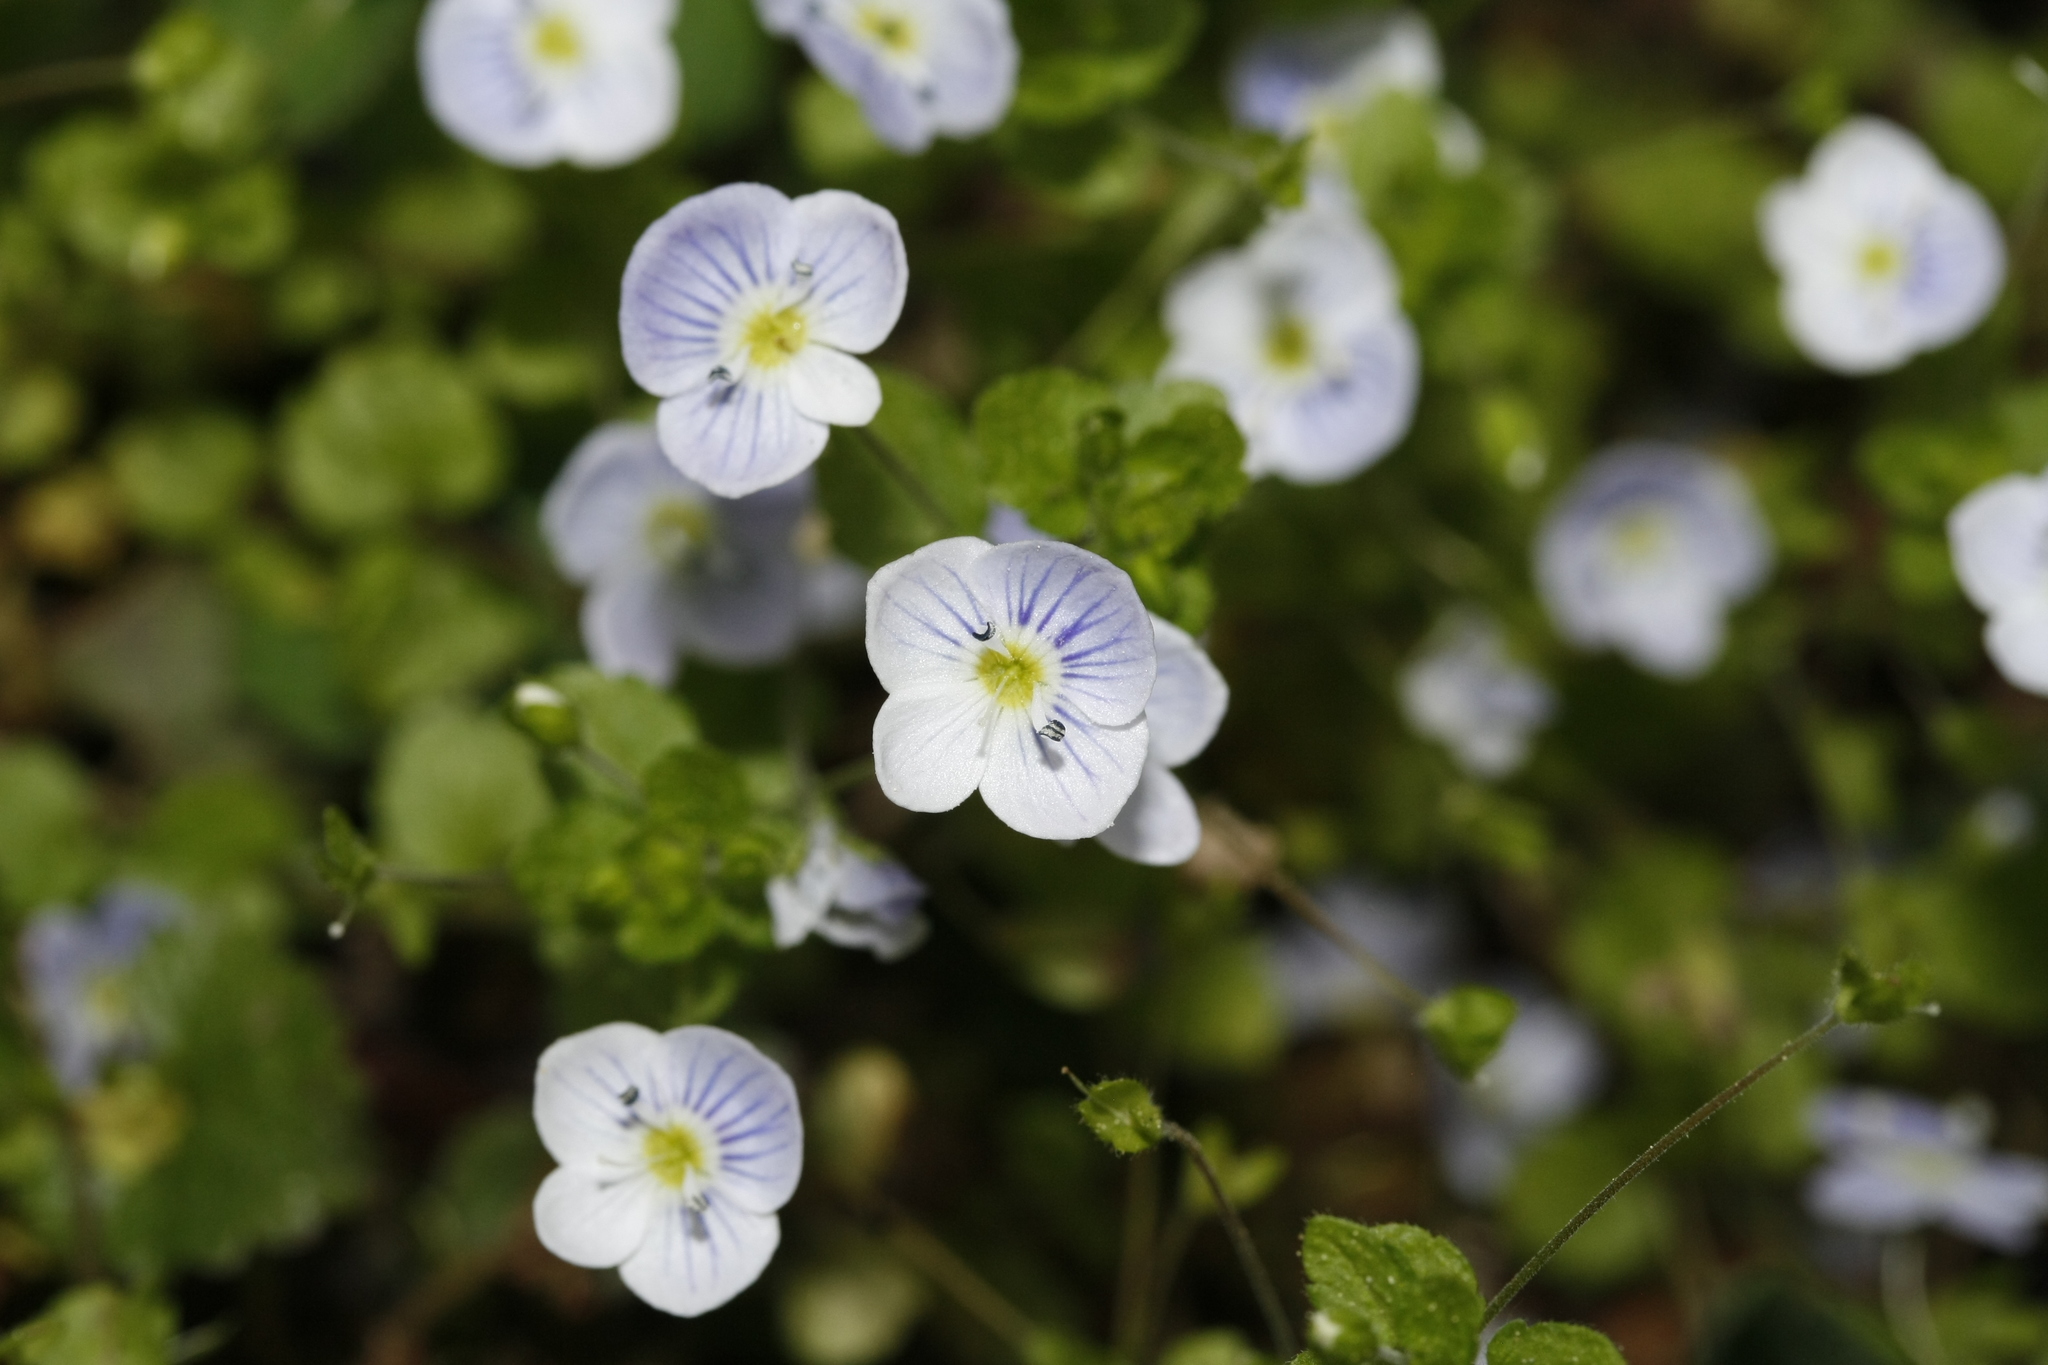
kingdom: Plantae
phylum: Tracheophyta
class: Magnoliopsida
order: Lamiales
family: Plantaginaceae
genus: Veronica
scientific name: Veronica filiformis
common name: Slender speedwell
